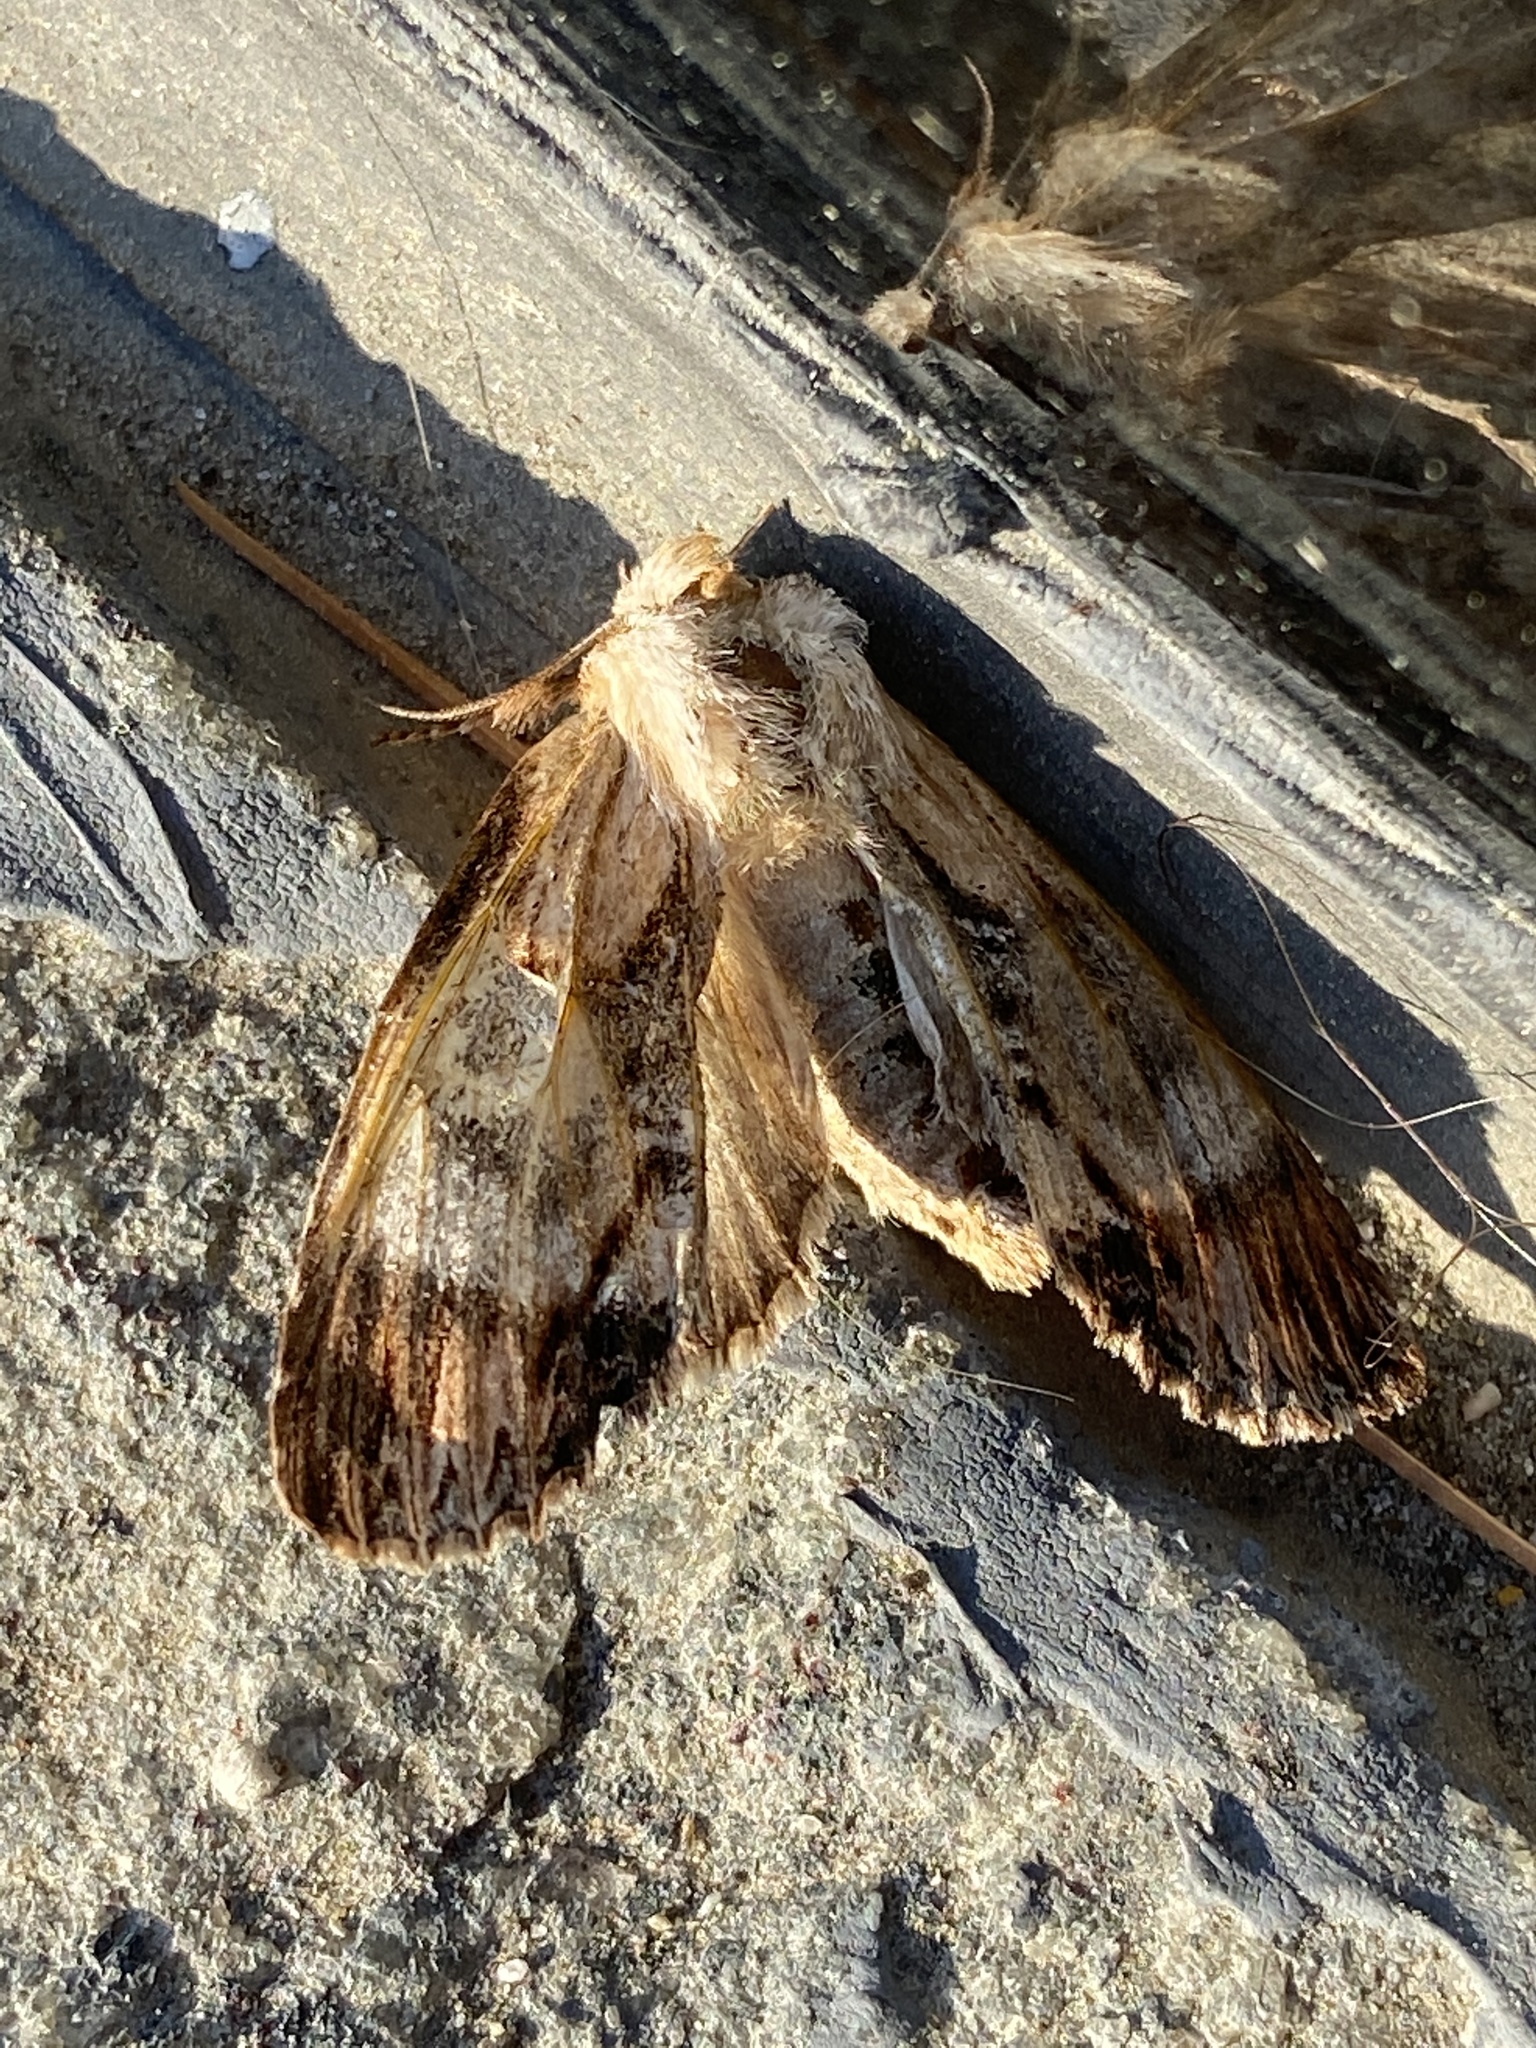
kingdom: Animalia
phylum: Arthropoda
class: Insecta
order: Lepidoptera
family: Notodontidae
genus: Dasylophia
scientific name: Dasylophia thyatiroides
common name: Gray-patched prominent
